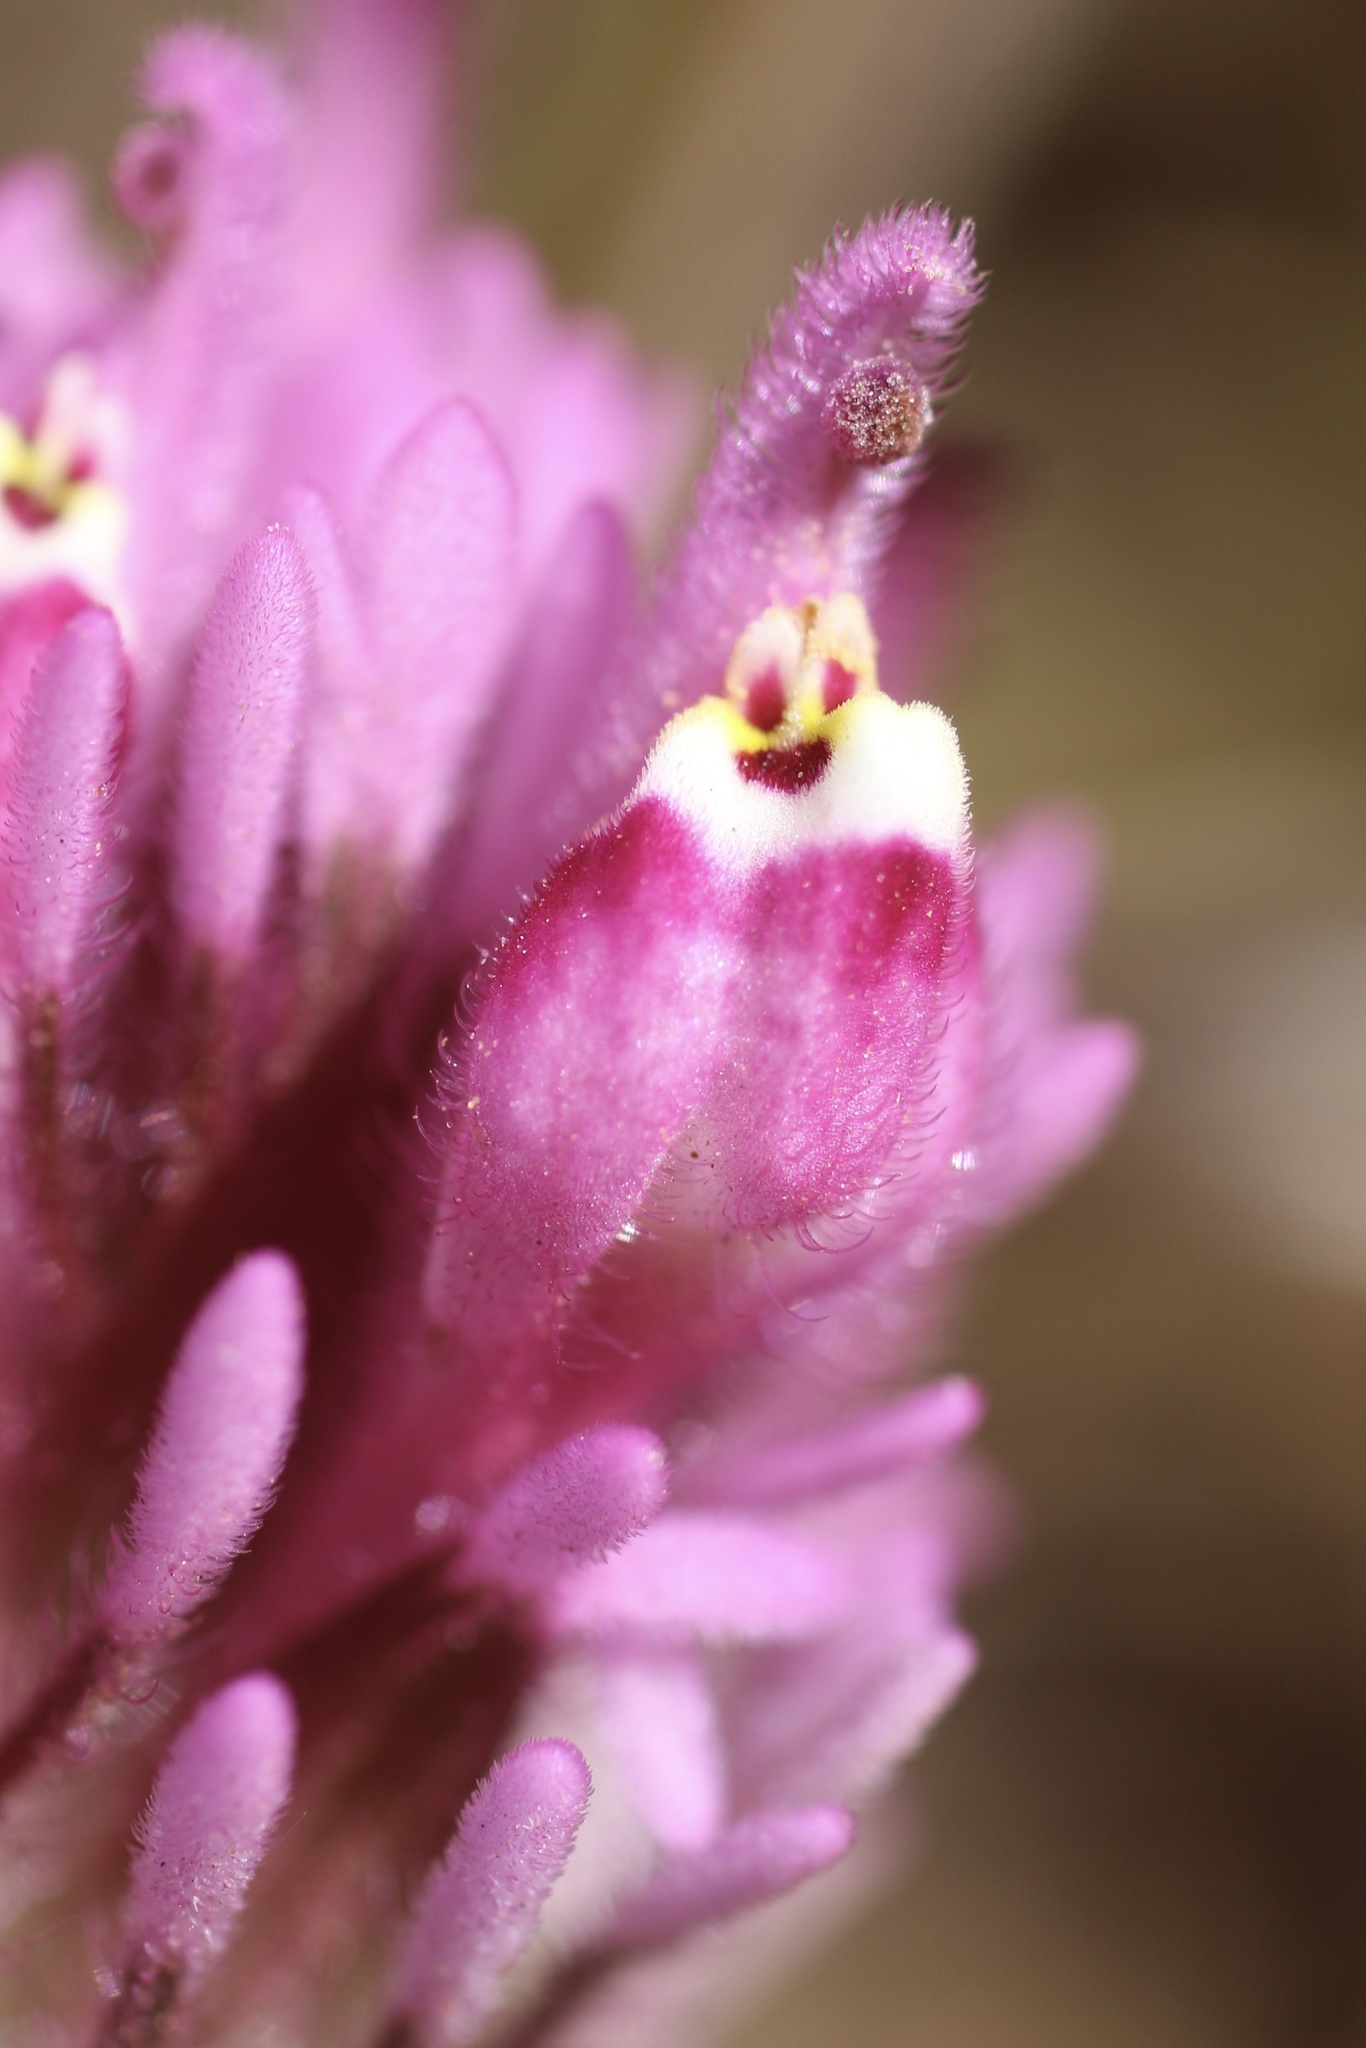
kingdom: Plantae
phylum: Tracheophyta
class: Magnoliopsida
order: Lamiales
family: Orobanchaceae
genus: Castilleja
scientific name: Castilleja exserta
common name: Purple owl-clover
